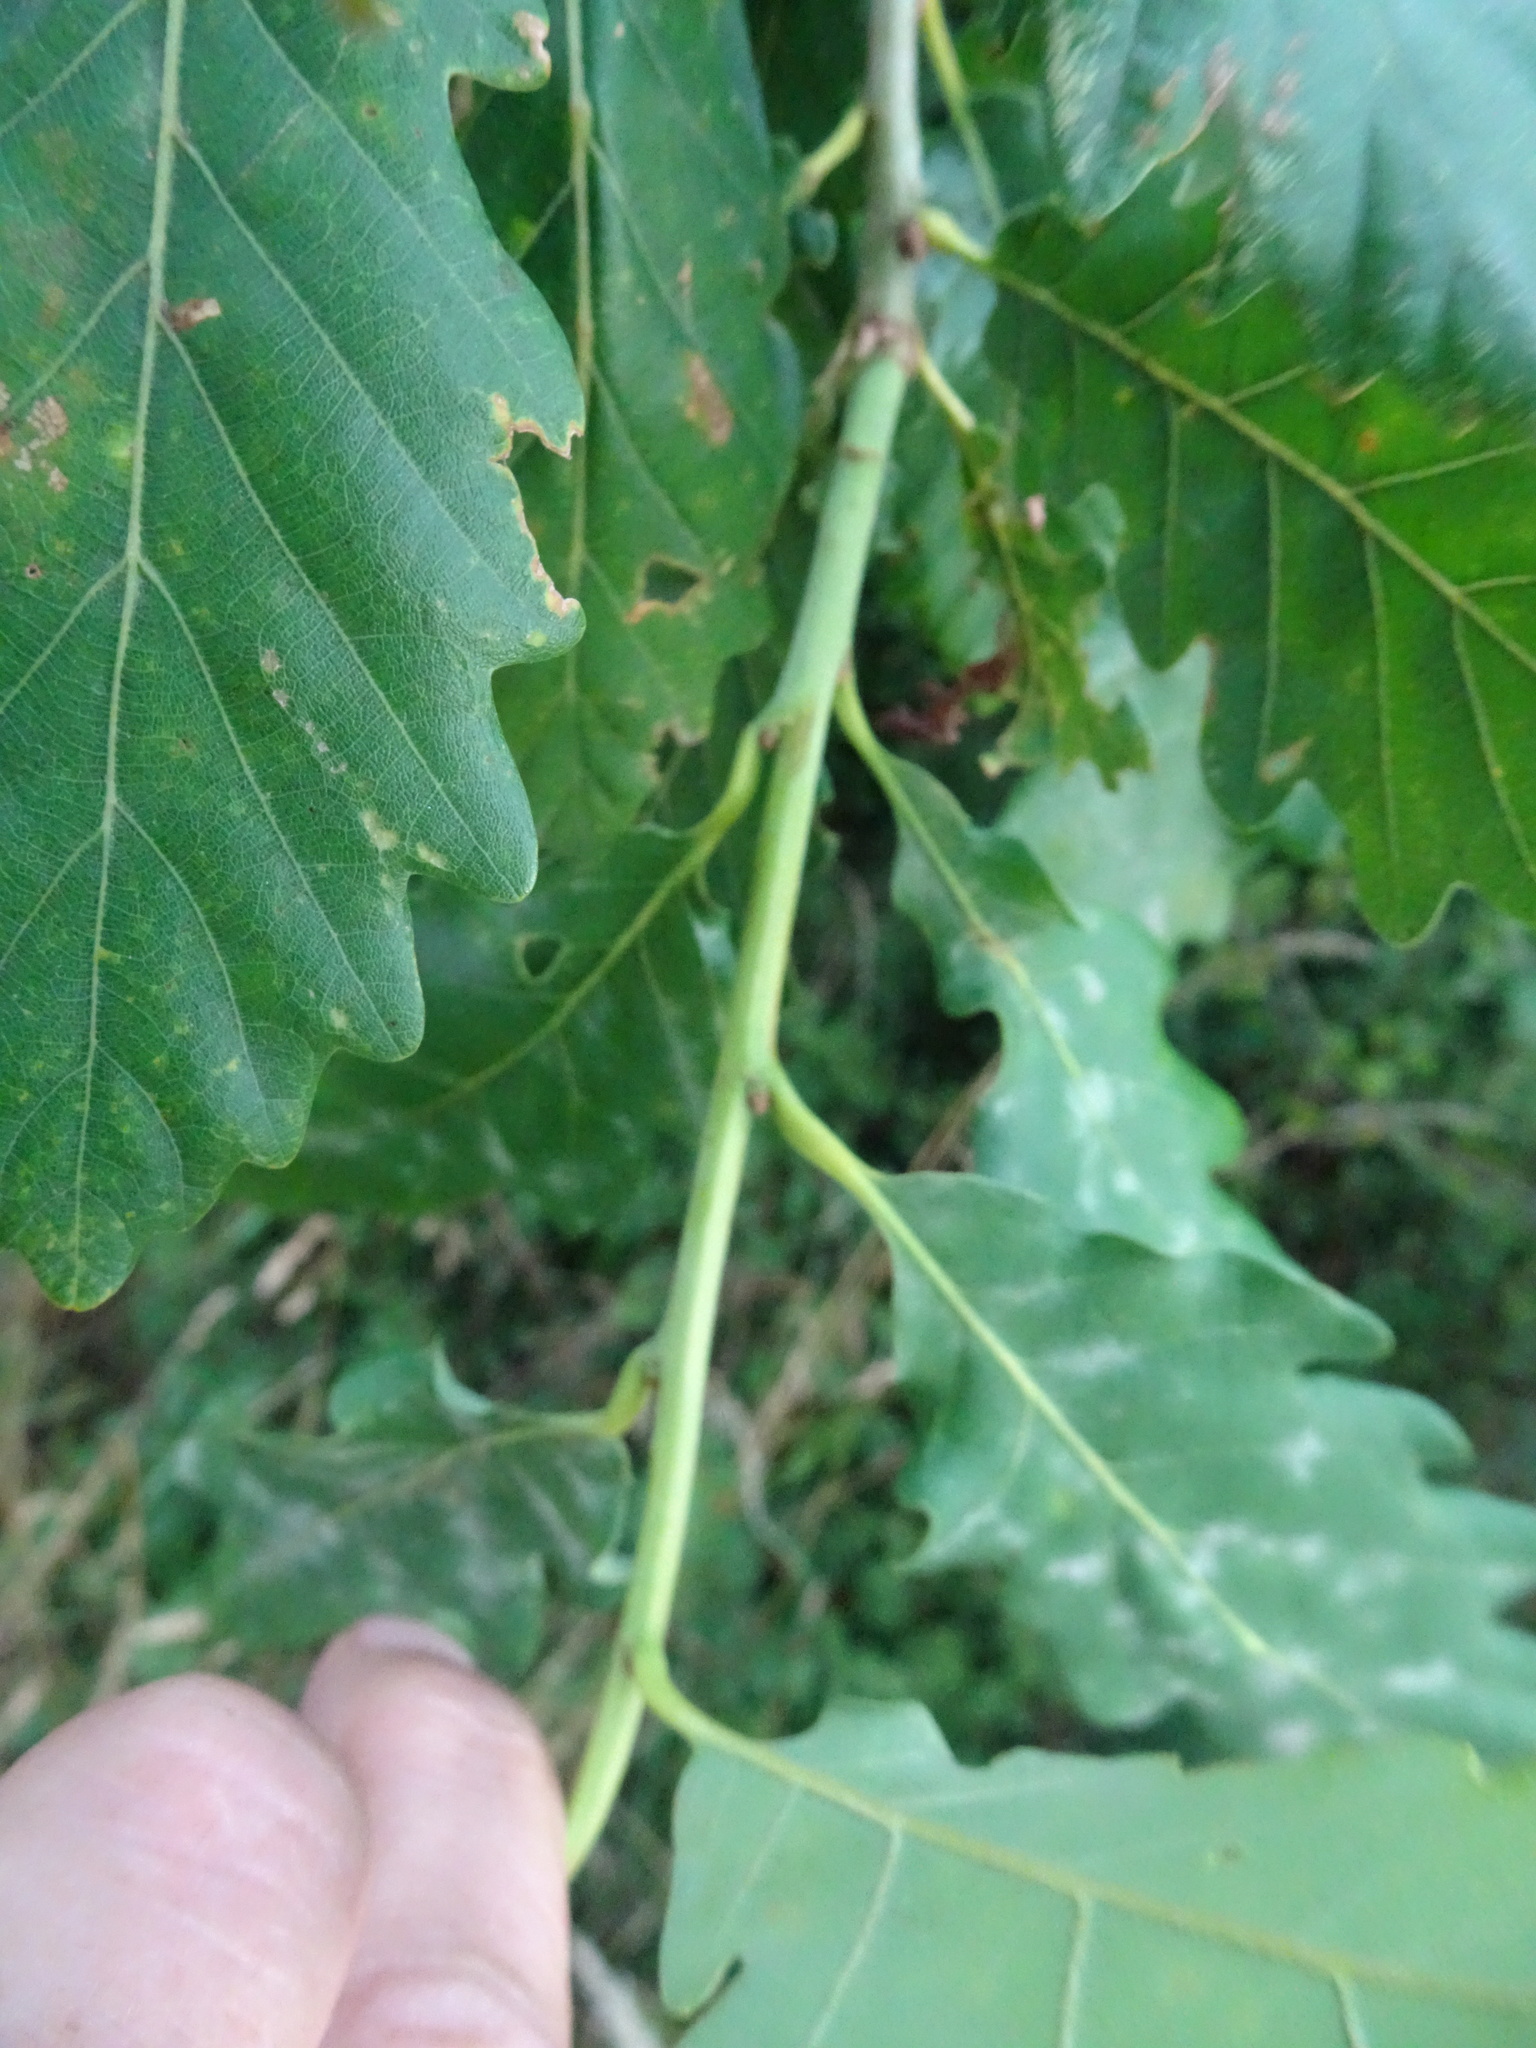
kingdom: Plantae
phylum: Tracheophyta
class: Magnoliopsida
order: Fagales
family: Fagaceae
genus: Quercus
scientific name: Quercus petraea
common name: Sessile oak
